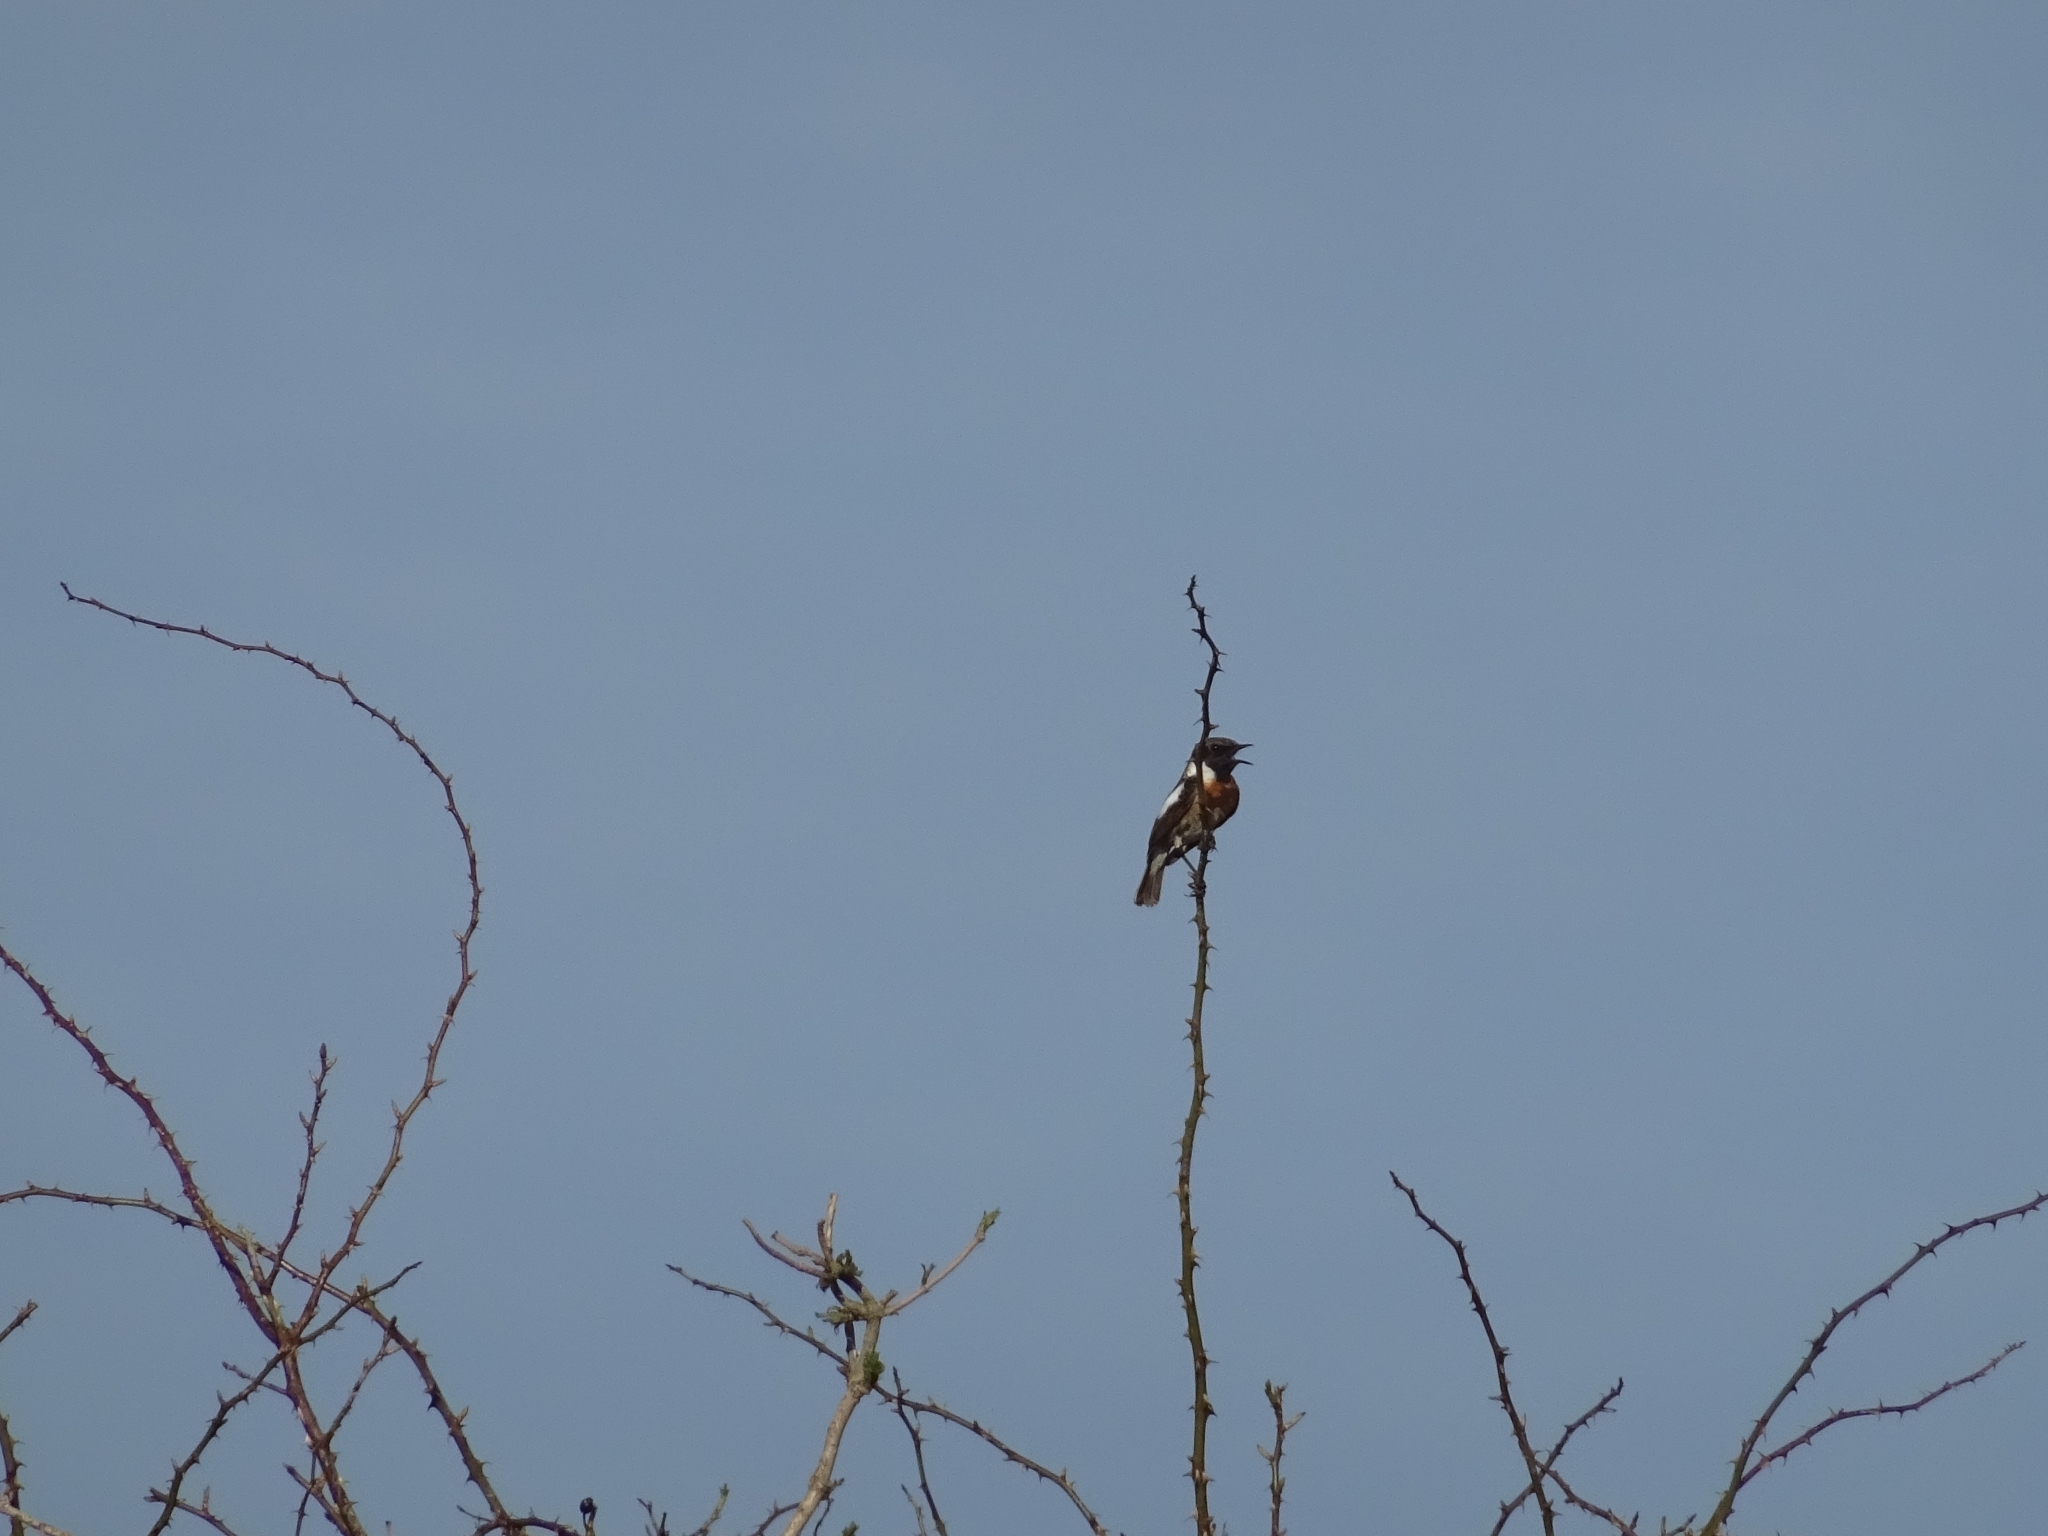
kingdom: Animalia
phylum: Chordata
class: Aves
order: Passeriformes
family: Muscicapidae
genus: Saxicola
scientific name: Saxicola rubicola
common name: European stonechat
